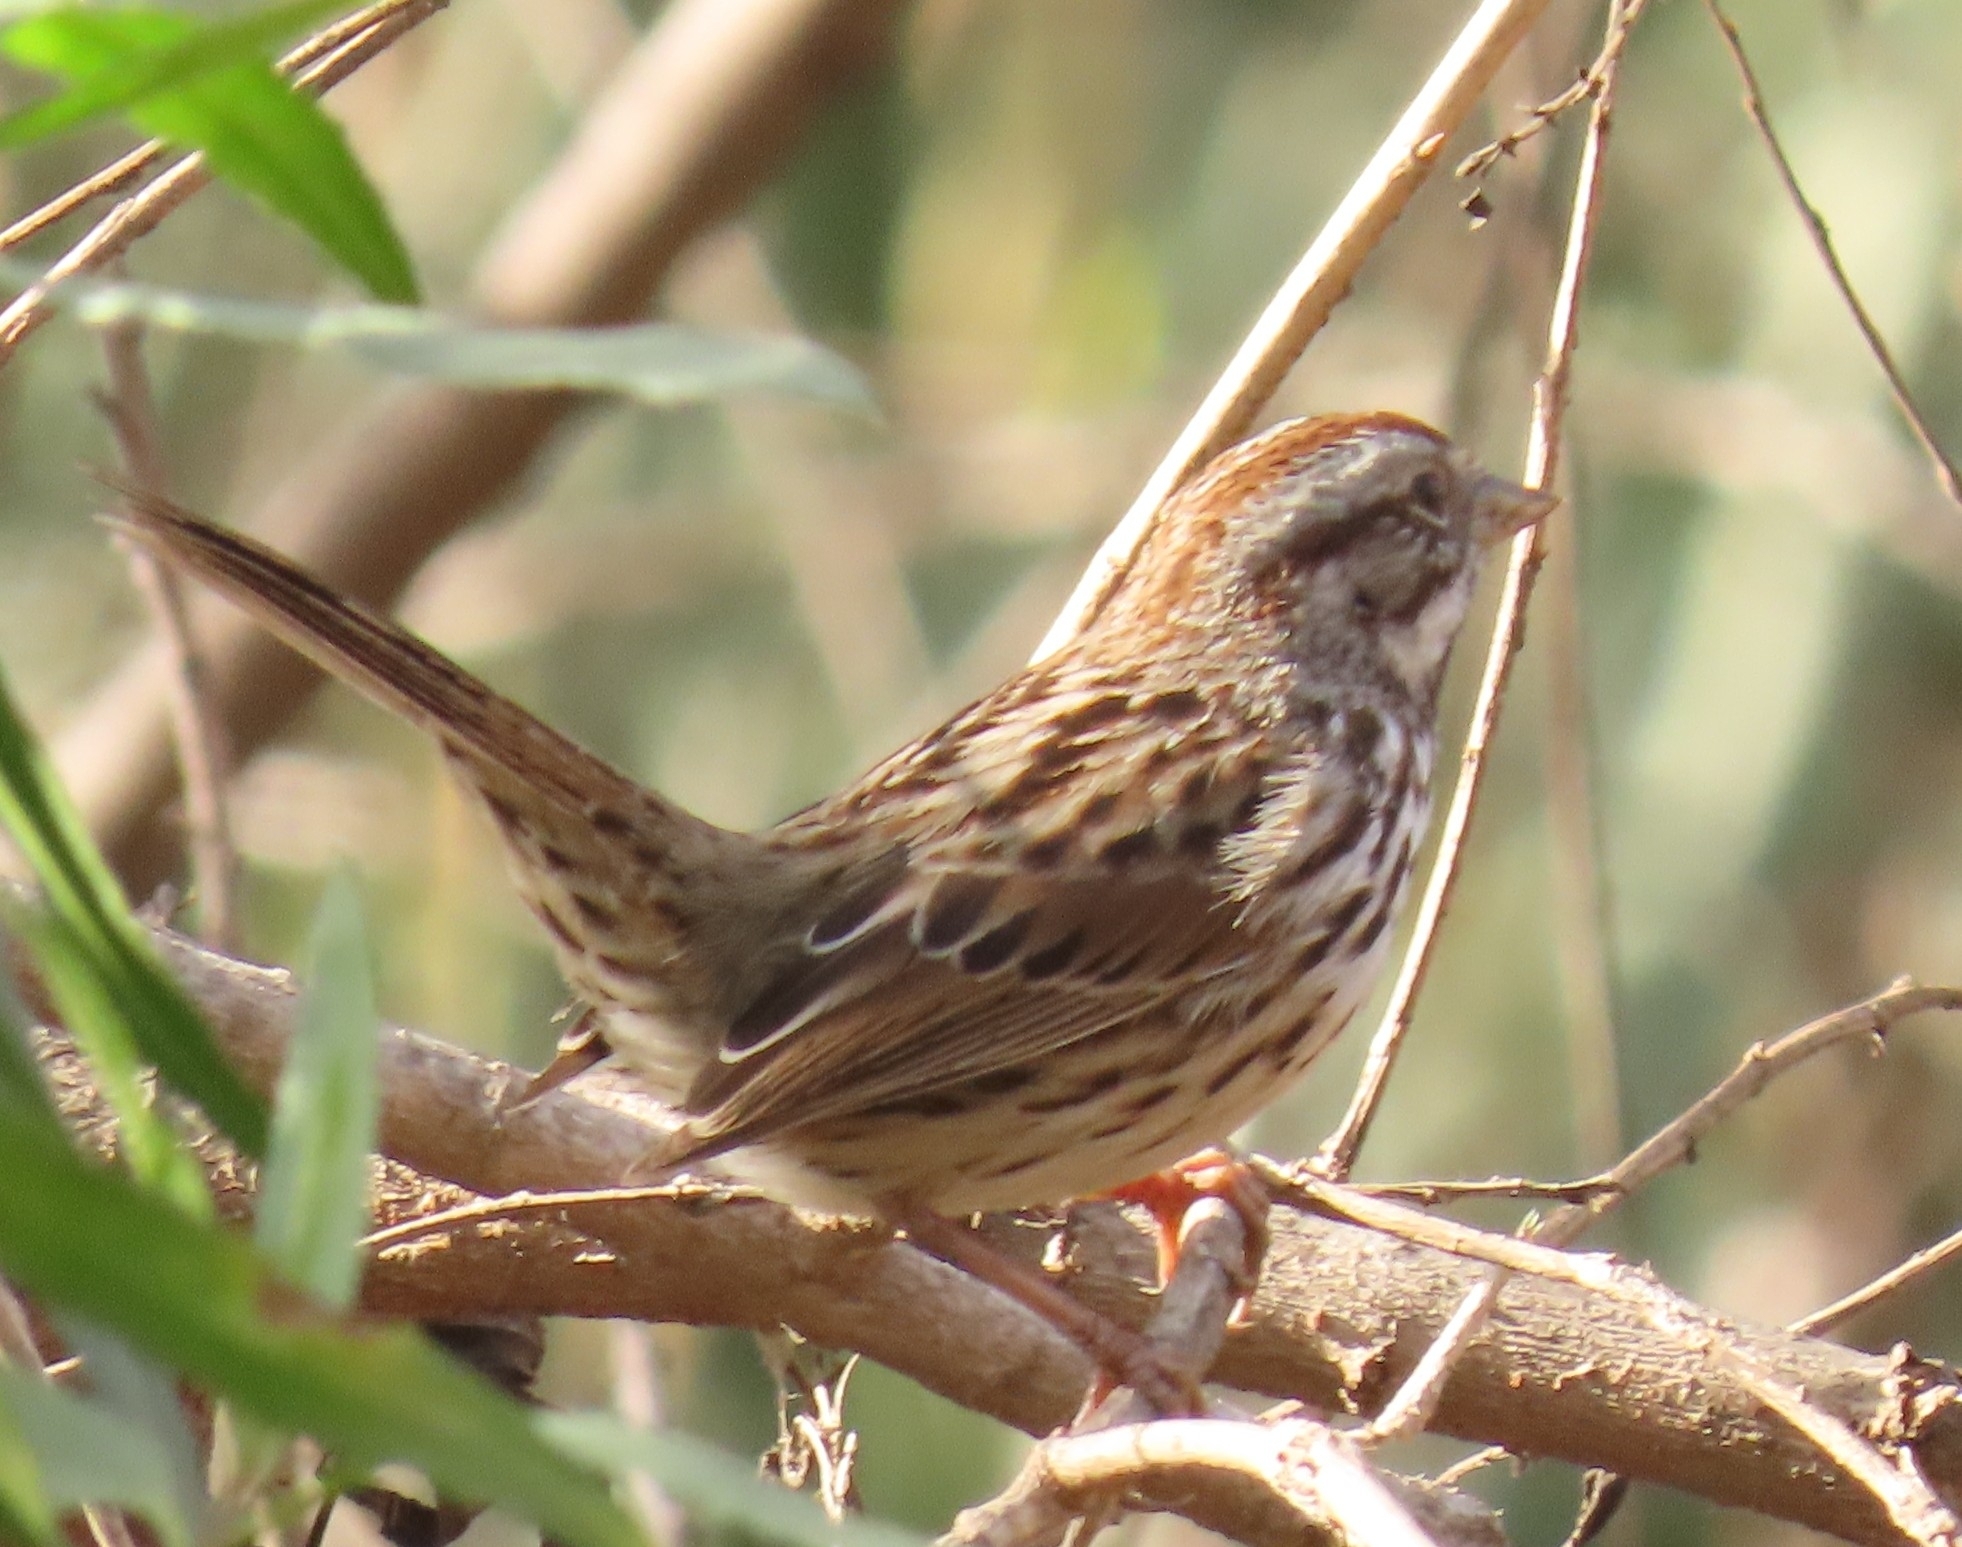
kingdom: Animalia
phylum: Chordata
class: Aves
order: Passeriformes
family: Passerellidae
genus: Melospiza
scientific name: Melospiza melodia
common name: Song sparrow
